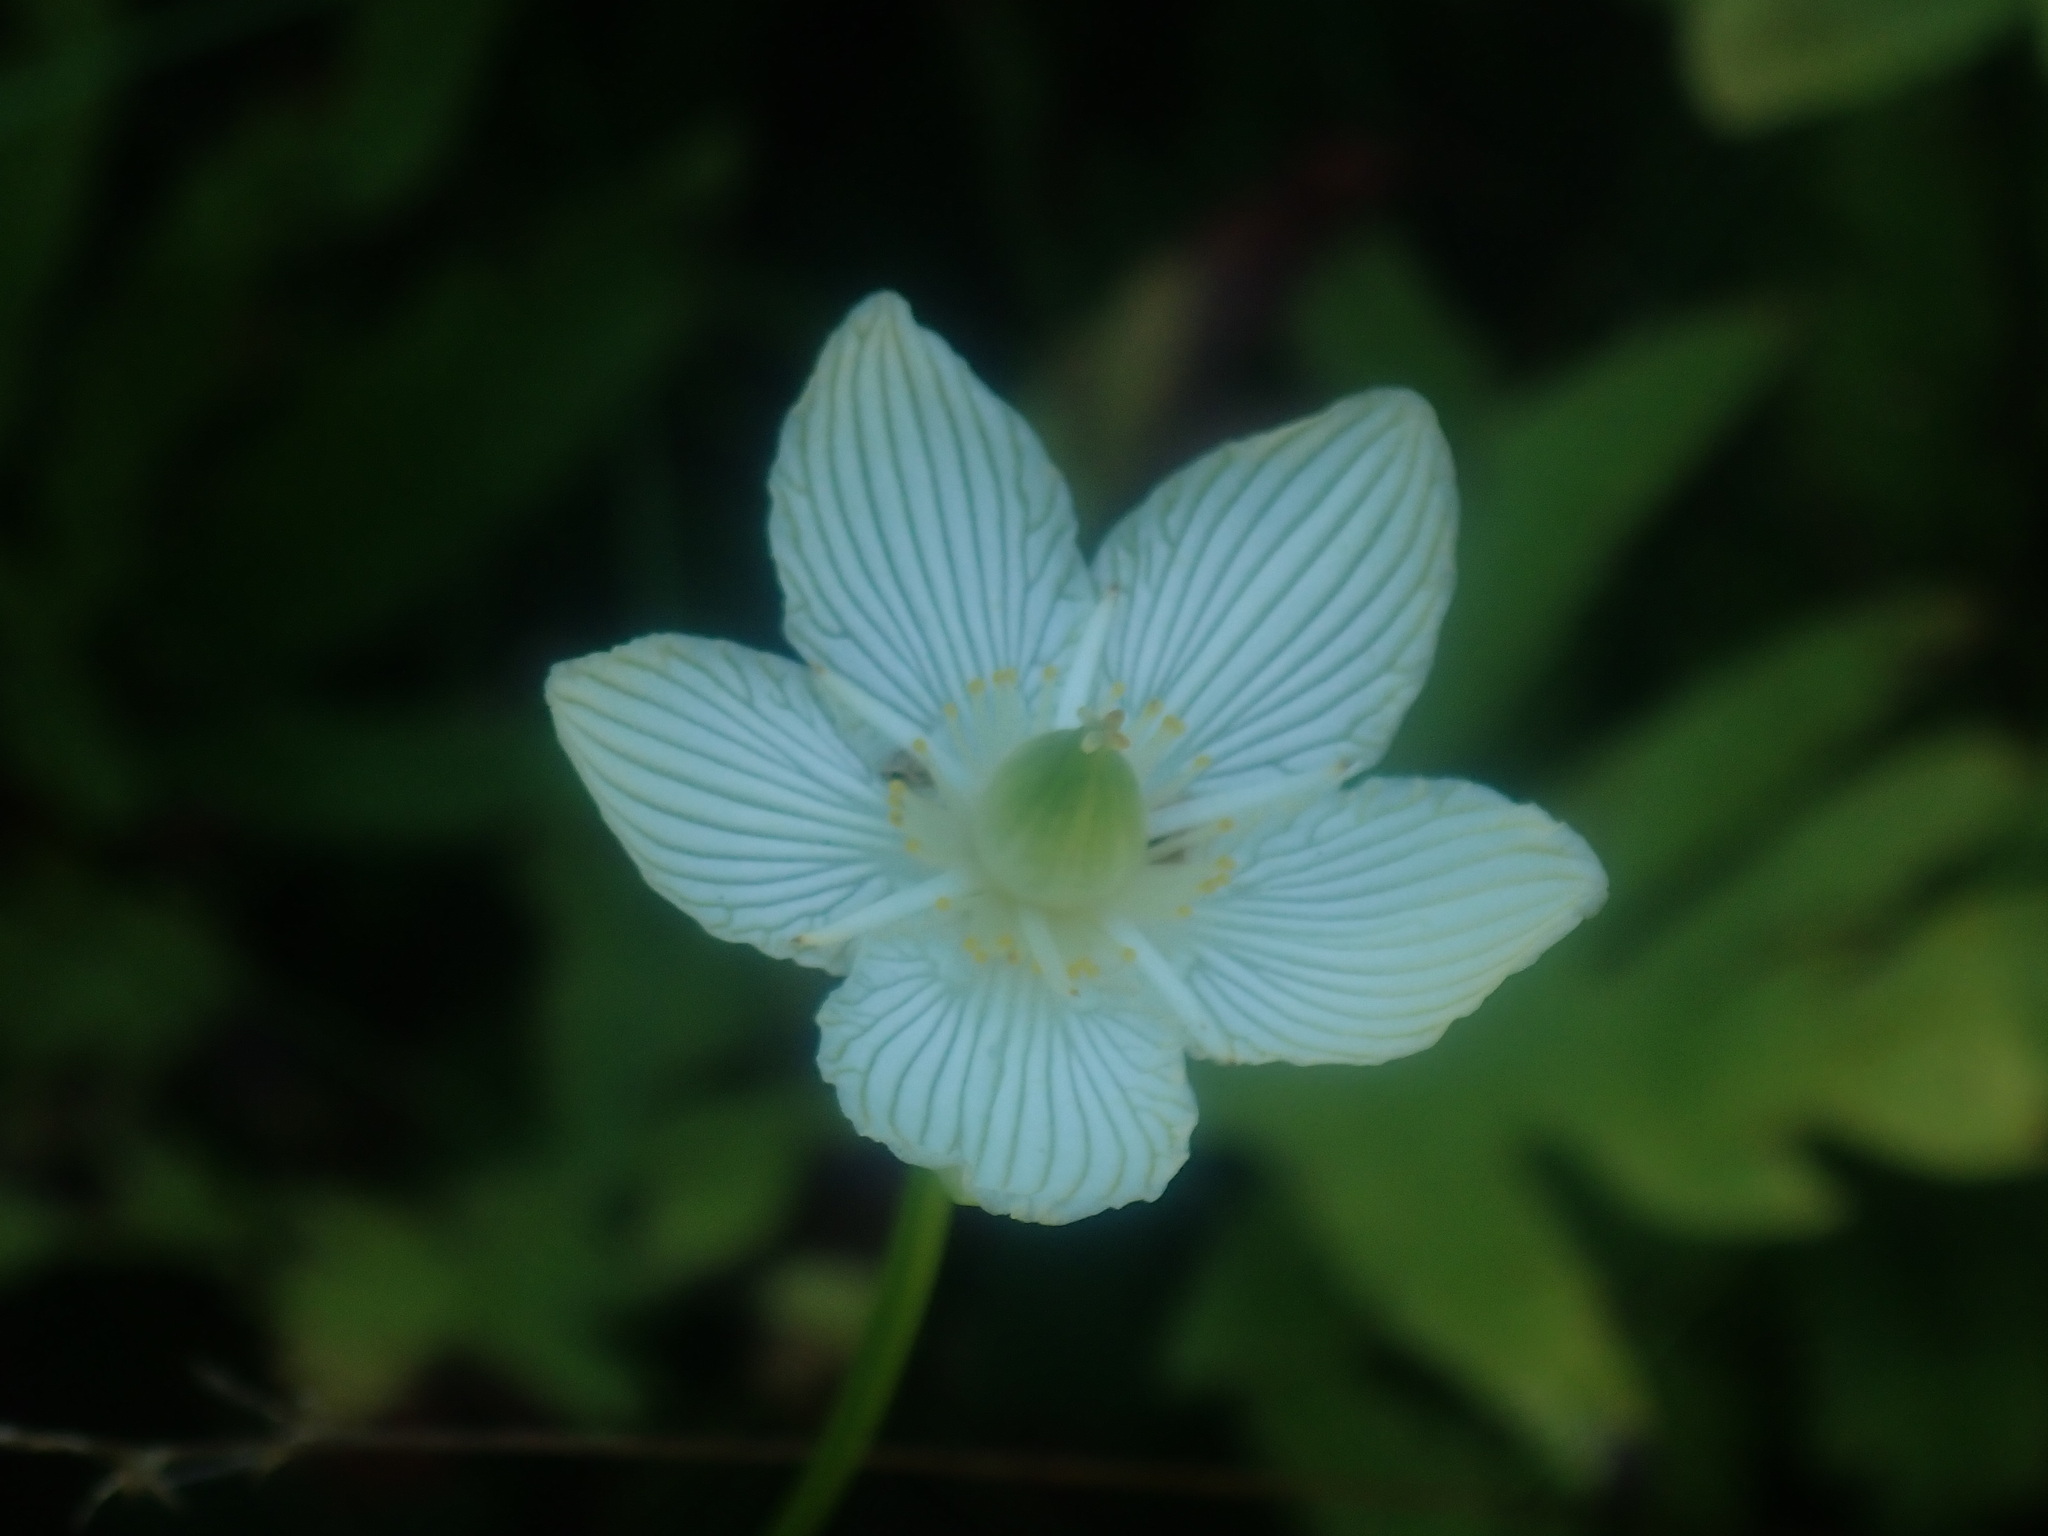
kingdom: Plantae
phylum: Tracheophyta
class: Magnoliopsida
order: Celastrales
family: Parnassiaceae
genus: Parnassia
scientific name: Parnassia glauca
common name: American grass-of-parnassus
